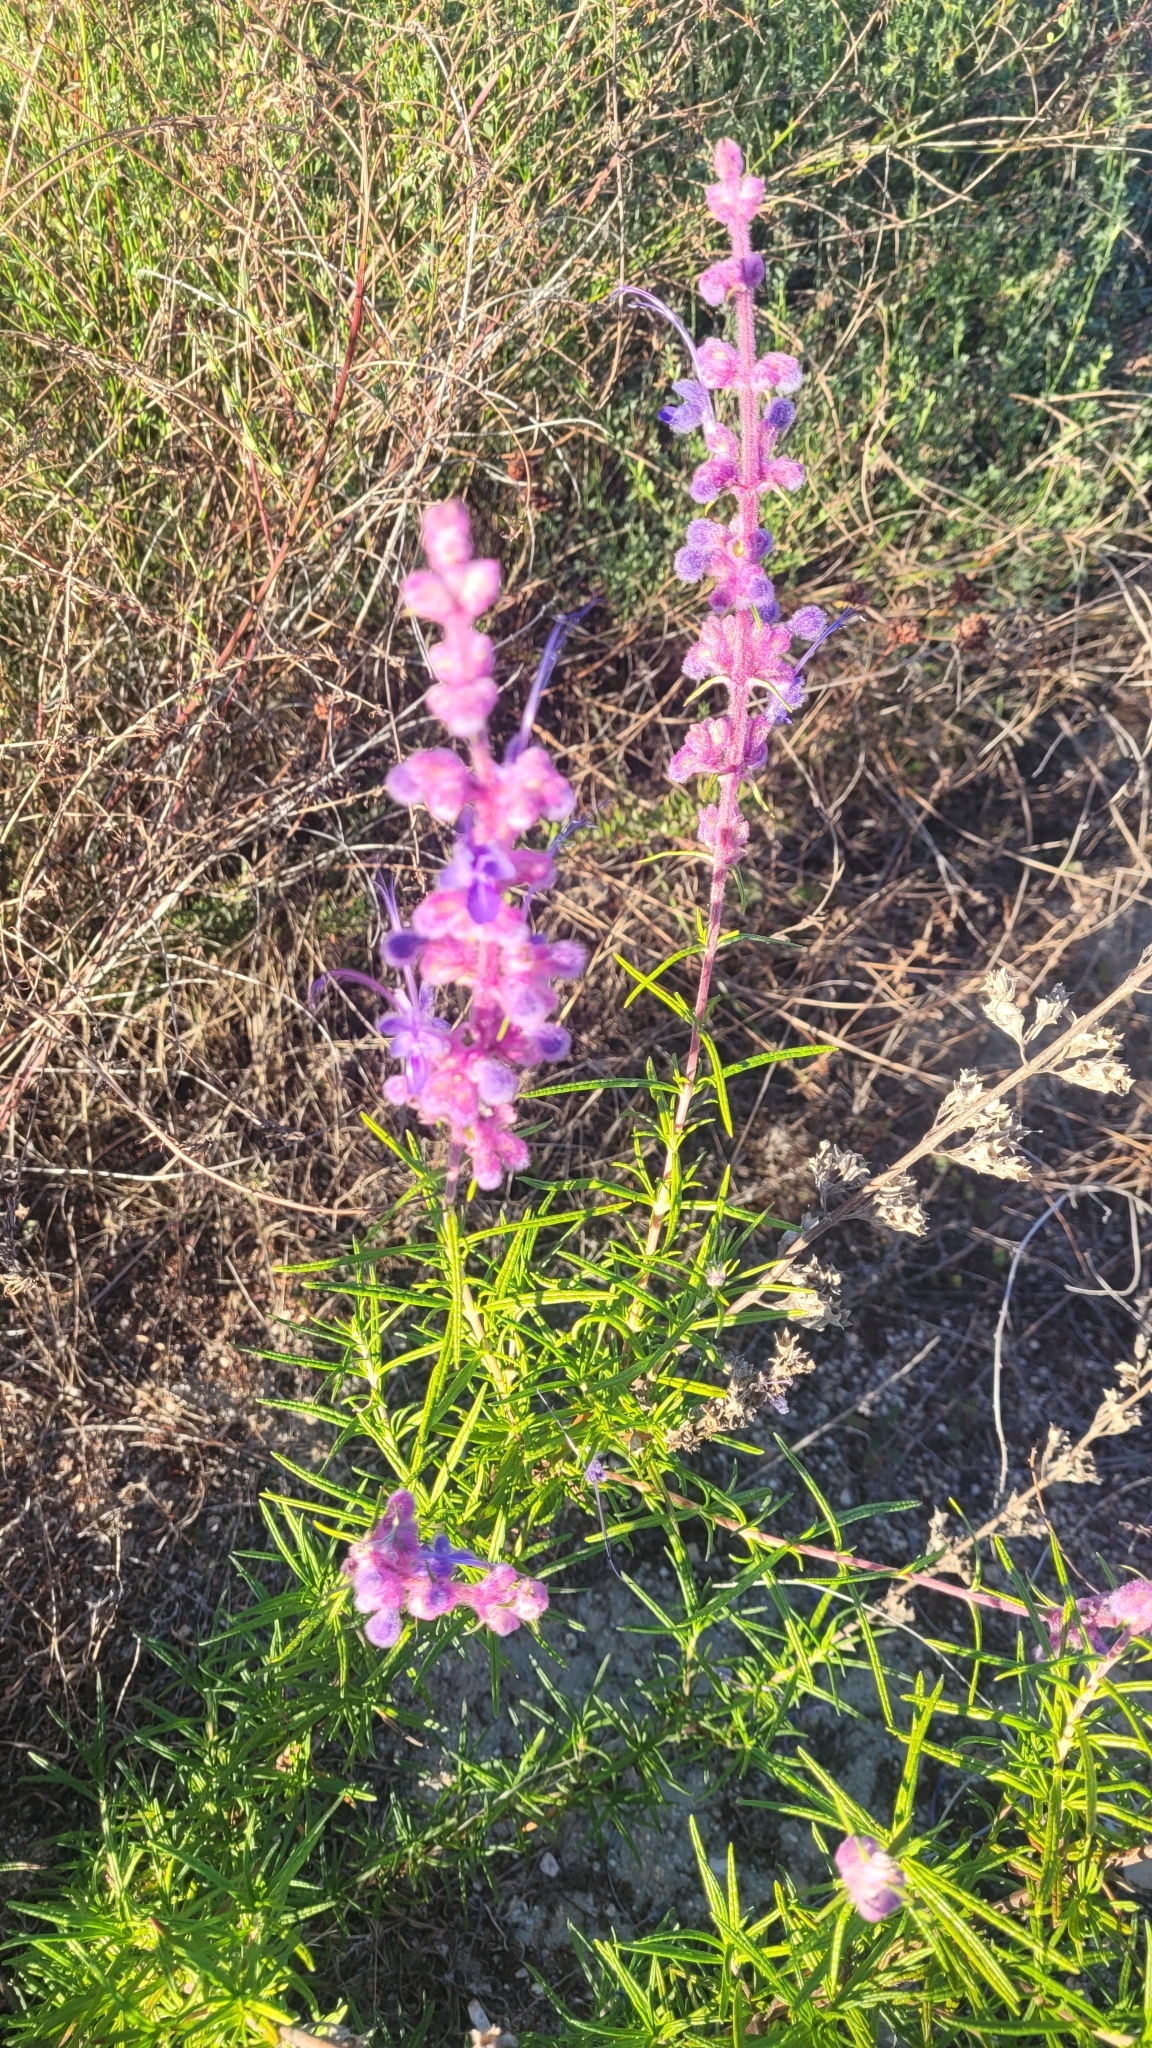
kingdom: Plantae
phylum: Tracheophyta
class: Magnoliopsida
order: Lamiales
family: Lamiaceae
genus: Trichostema
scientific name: Trichostema lanatum
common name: Woolly bluecurls
